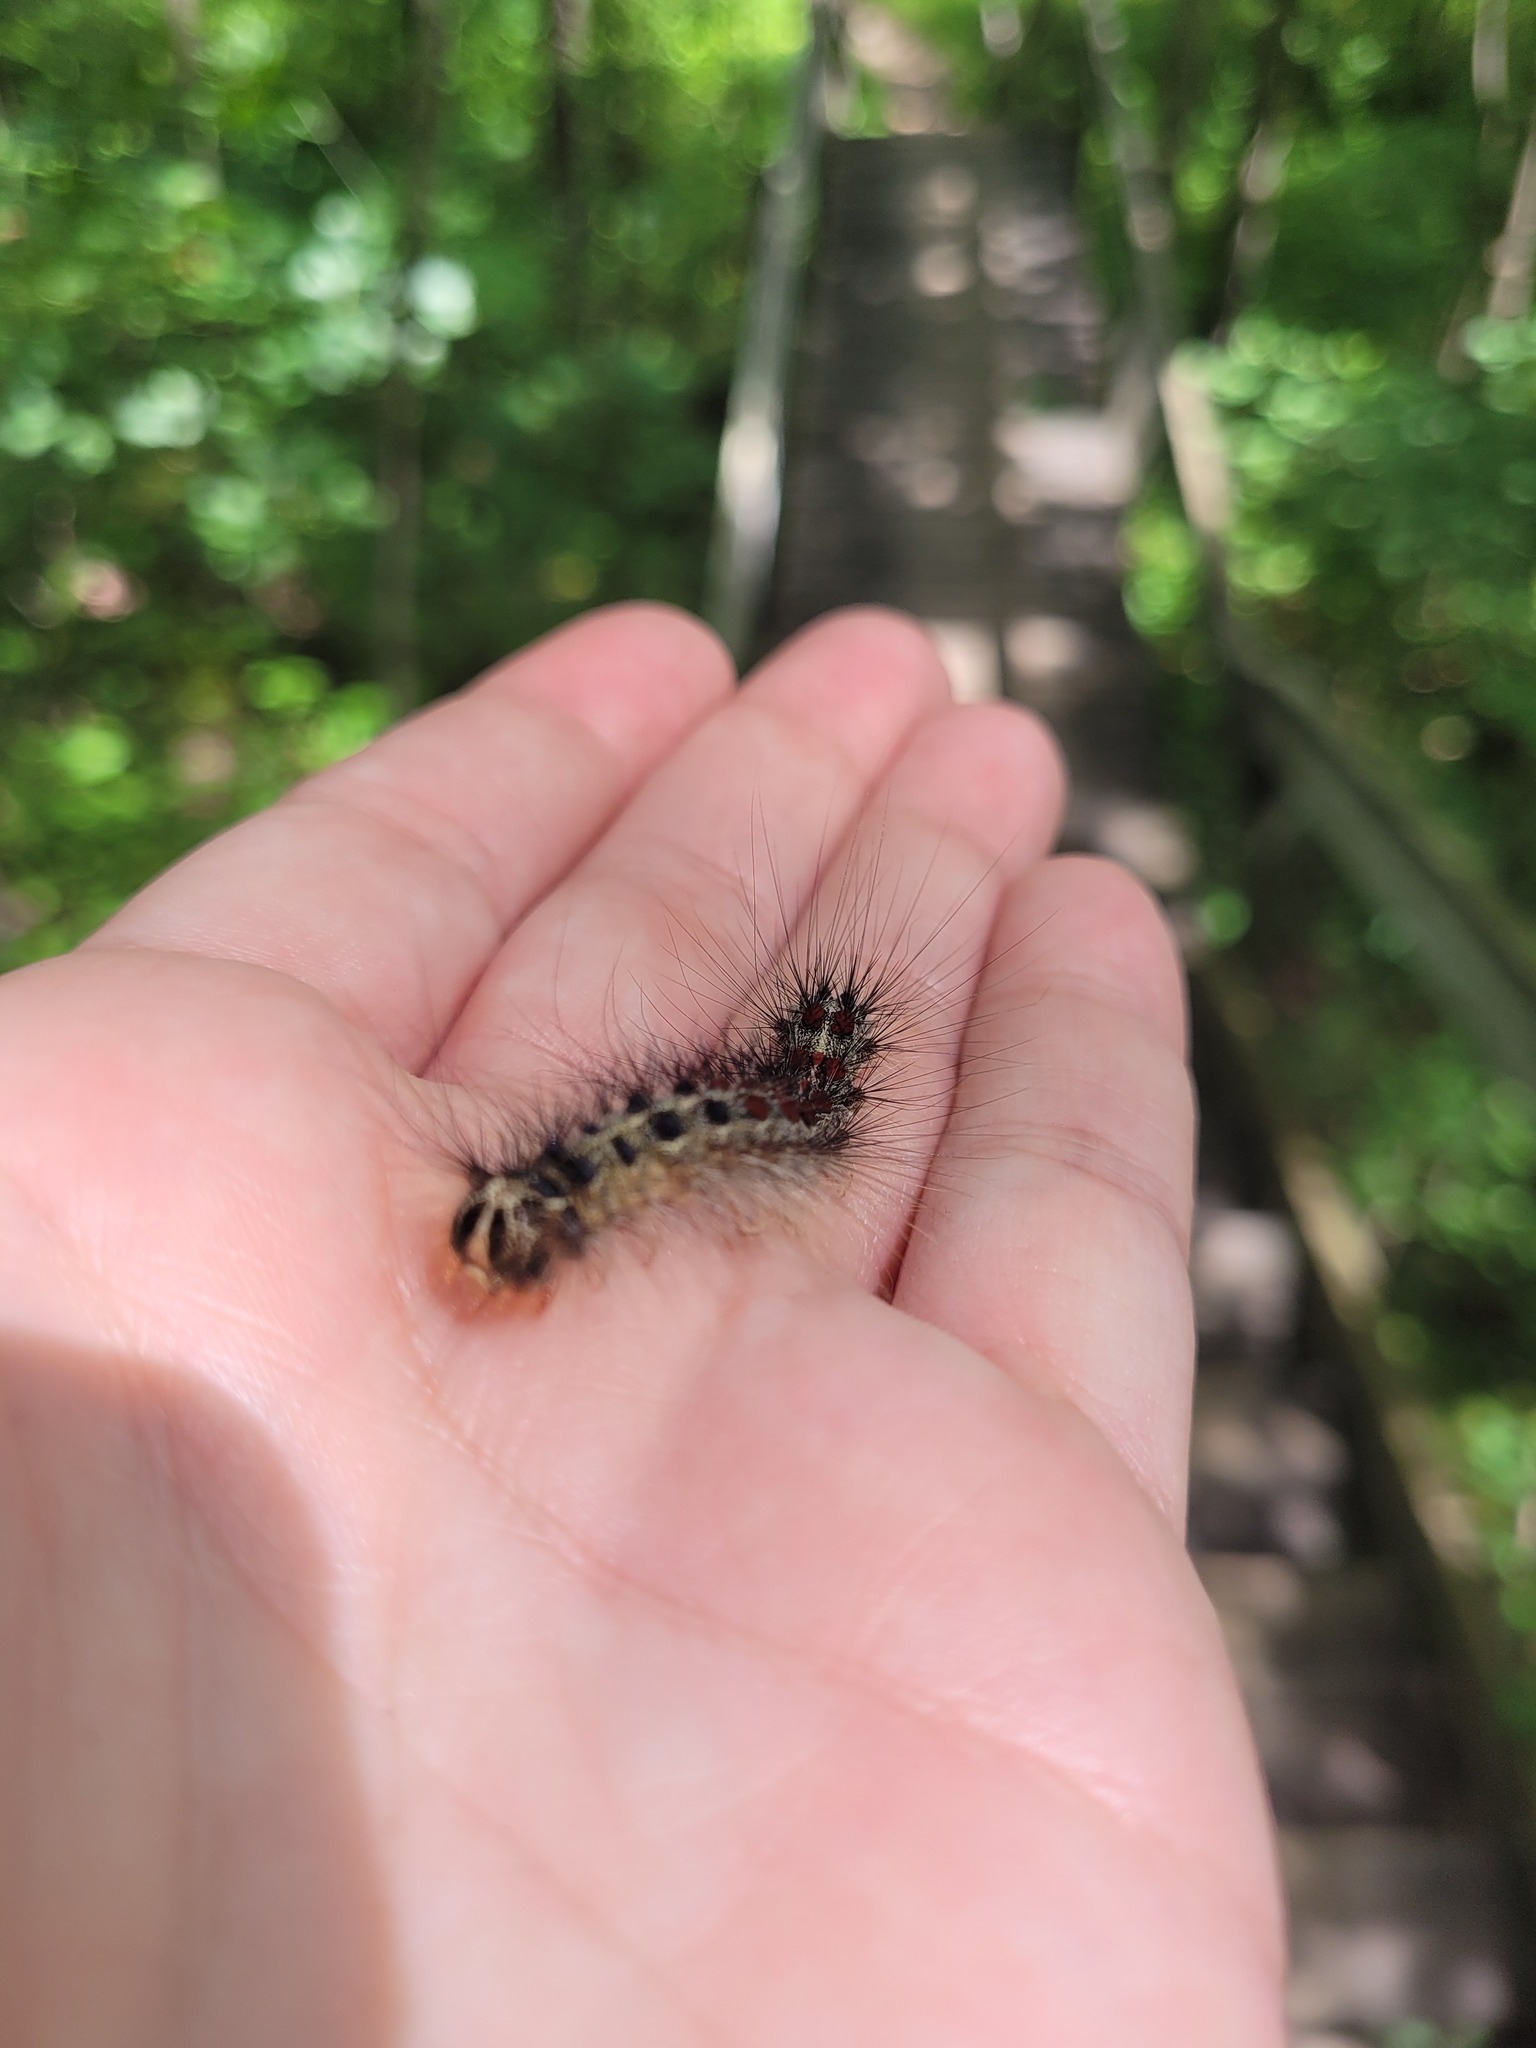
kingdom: Animalia
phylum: Arthropoda
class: Insecta
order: Lepidoptera
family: Erebidae
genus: Lymantria
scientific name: Lymantria dispar
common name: Gypsy moth
